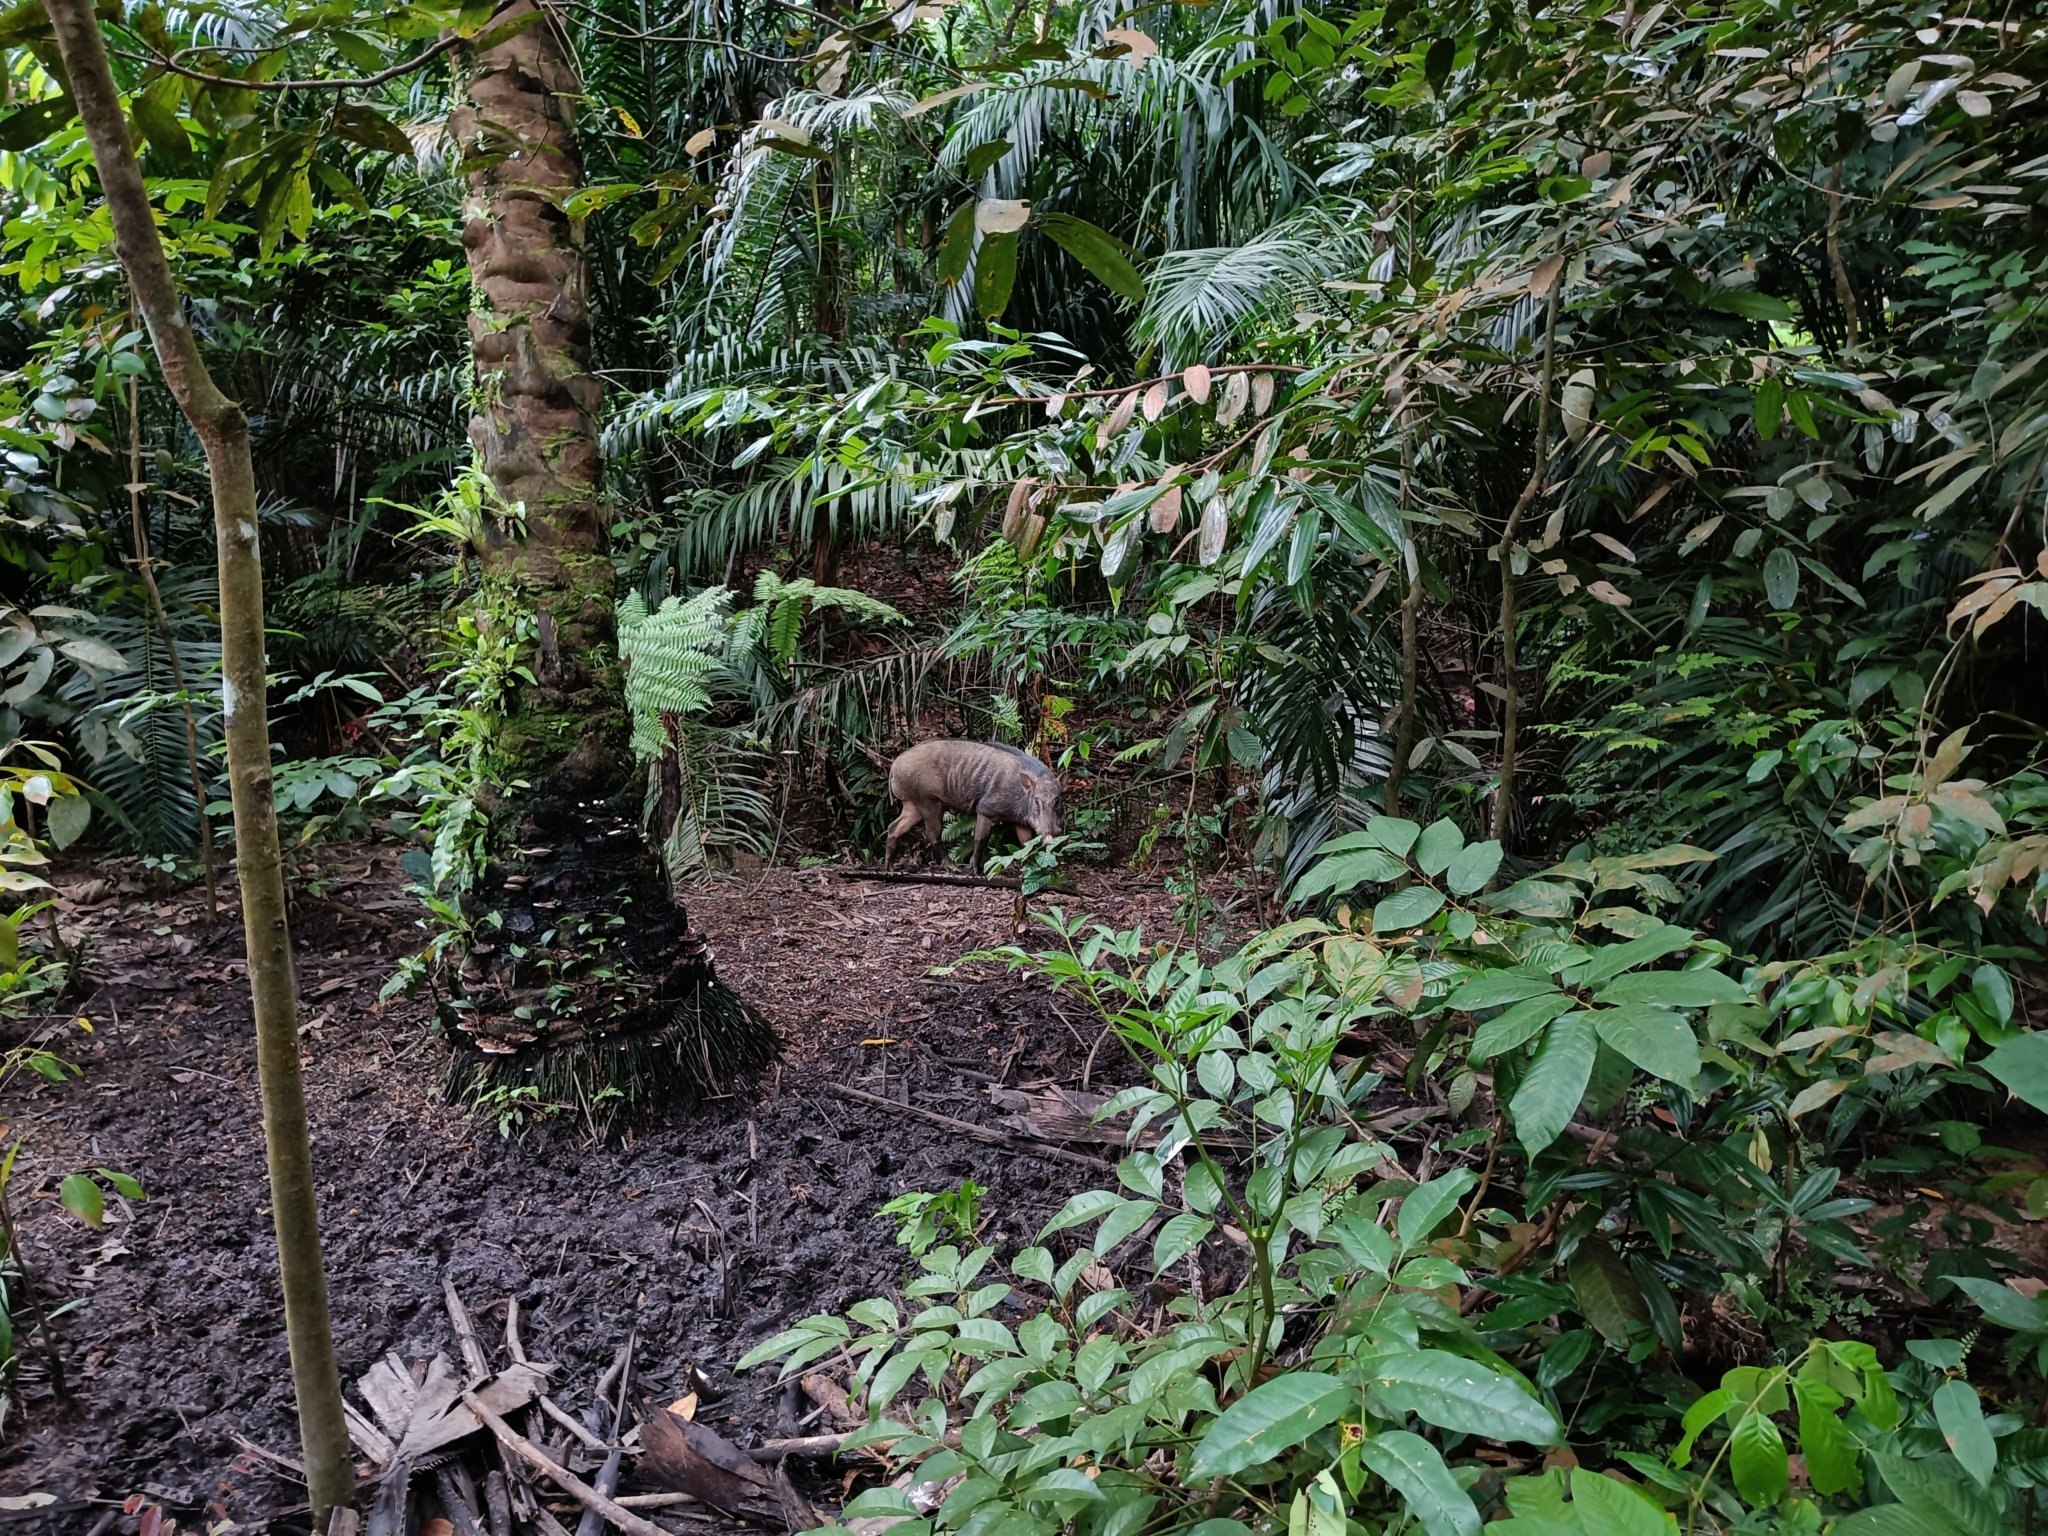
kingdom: Animalia
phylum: Chordata
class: Mammalia
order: Artiodactyla
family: Suidae
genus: Sus
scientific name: Sus scrofa
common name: Wild boar
